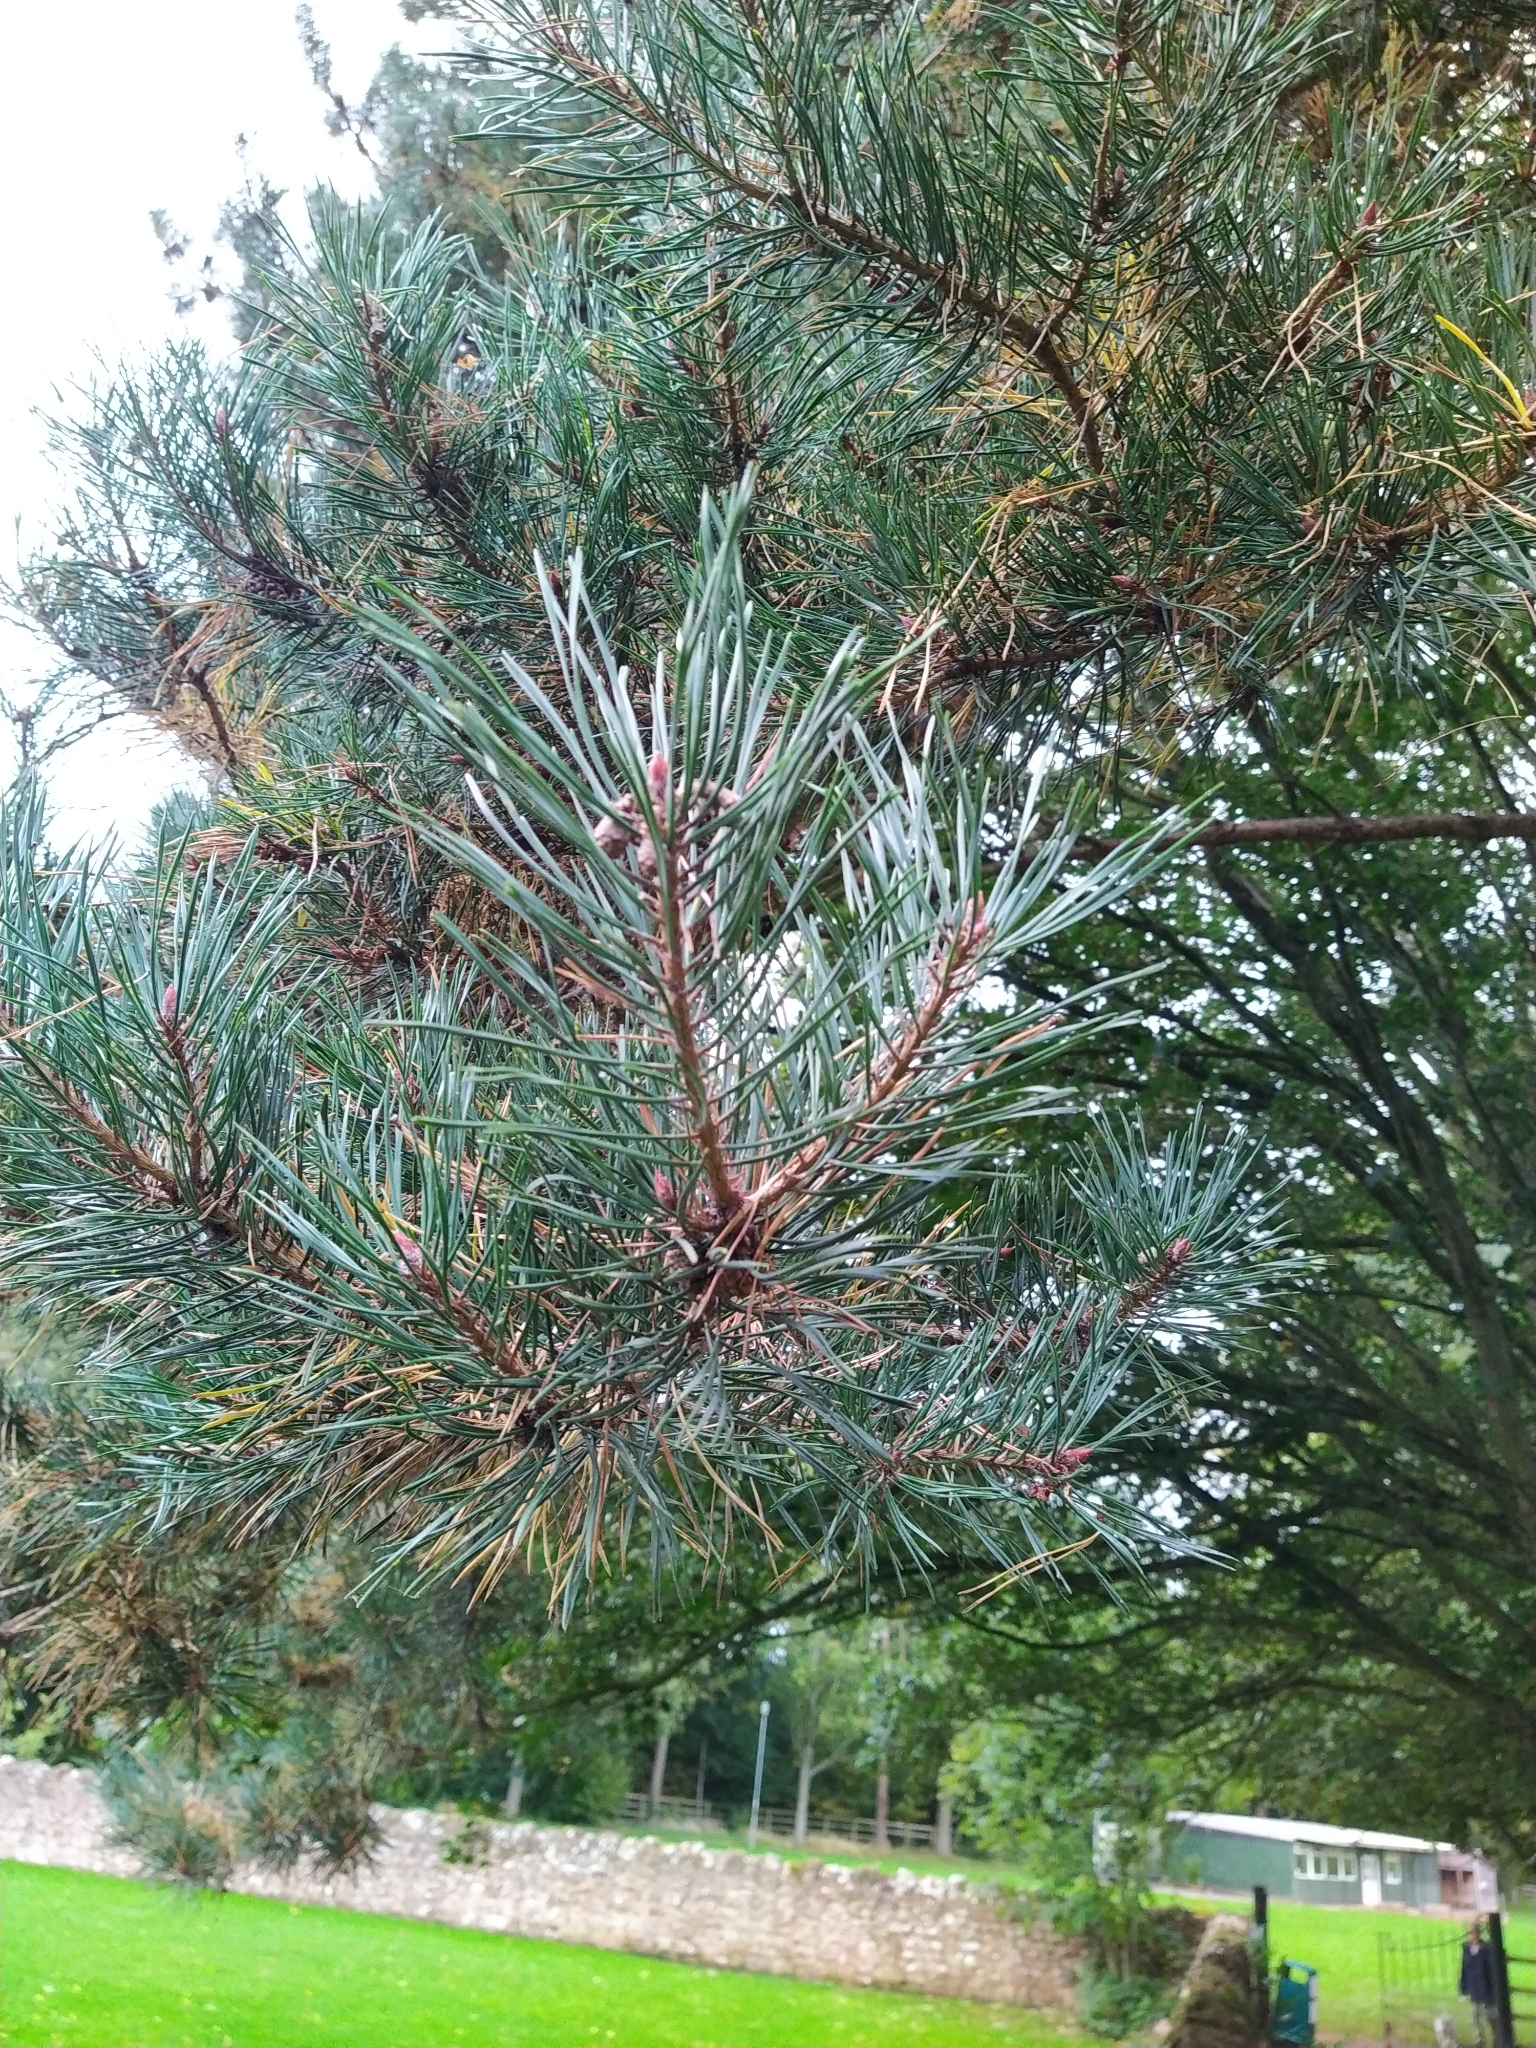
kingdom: Plantae
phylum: Tracheophyta
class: Pinopsida
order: Pinales
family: Pinaceae
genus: Pinus
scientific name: Pinus sylvestris
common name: Scots pine
